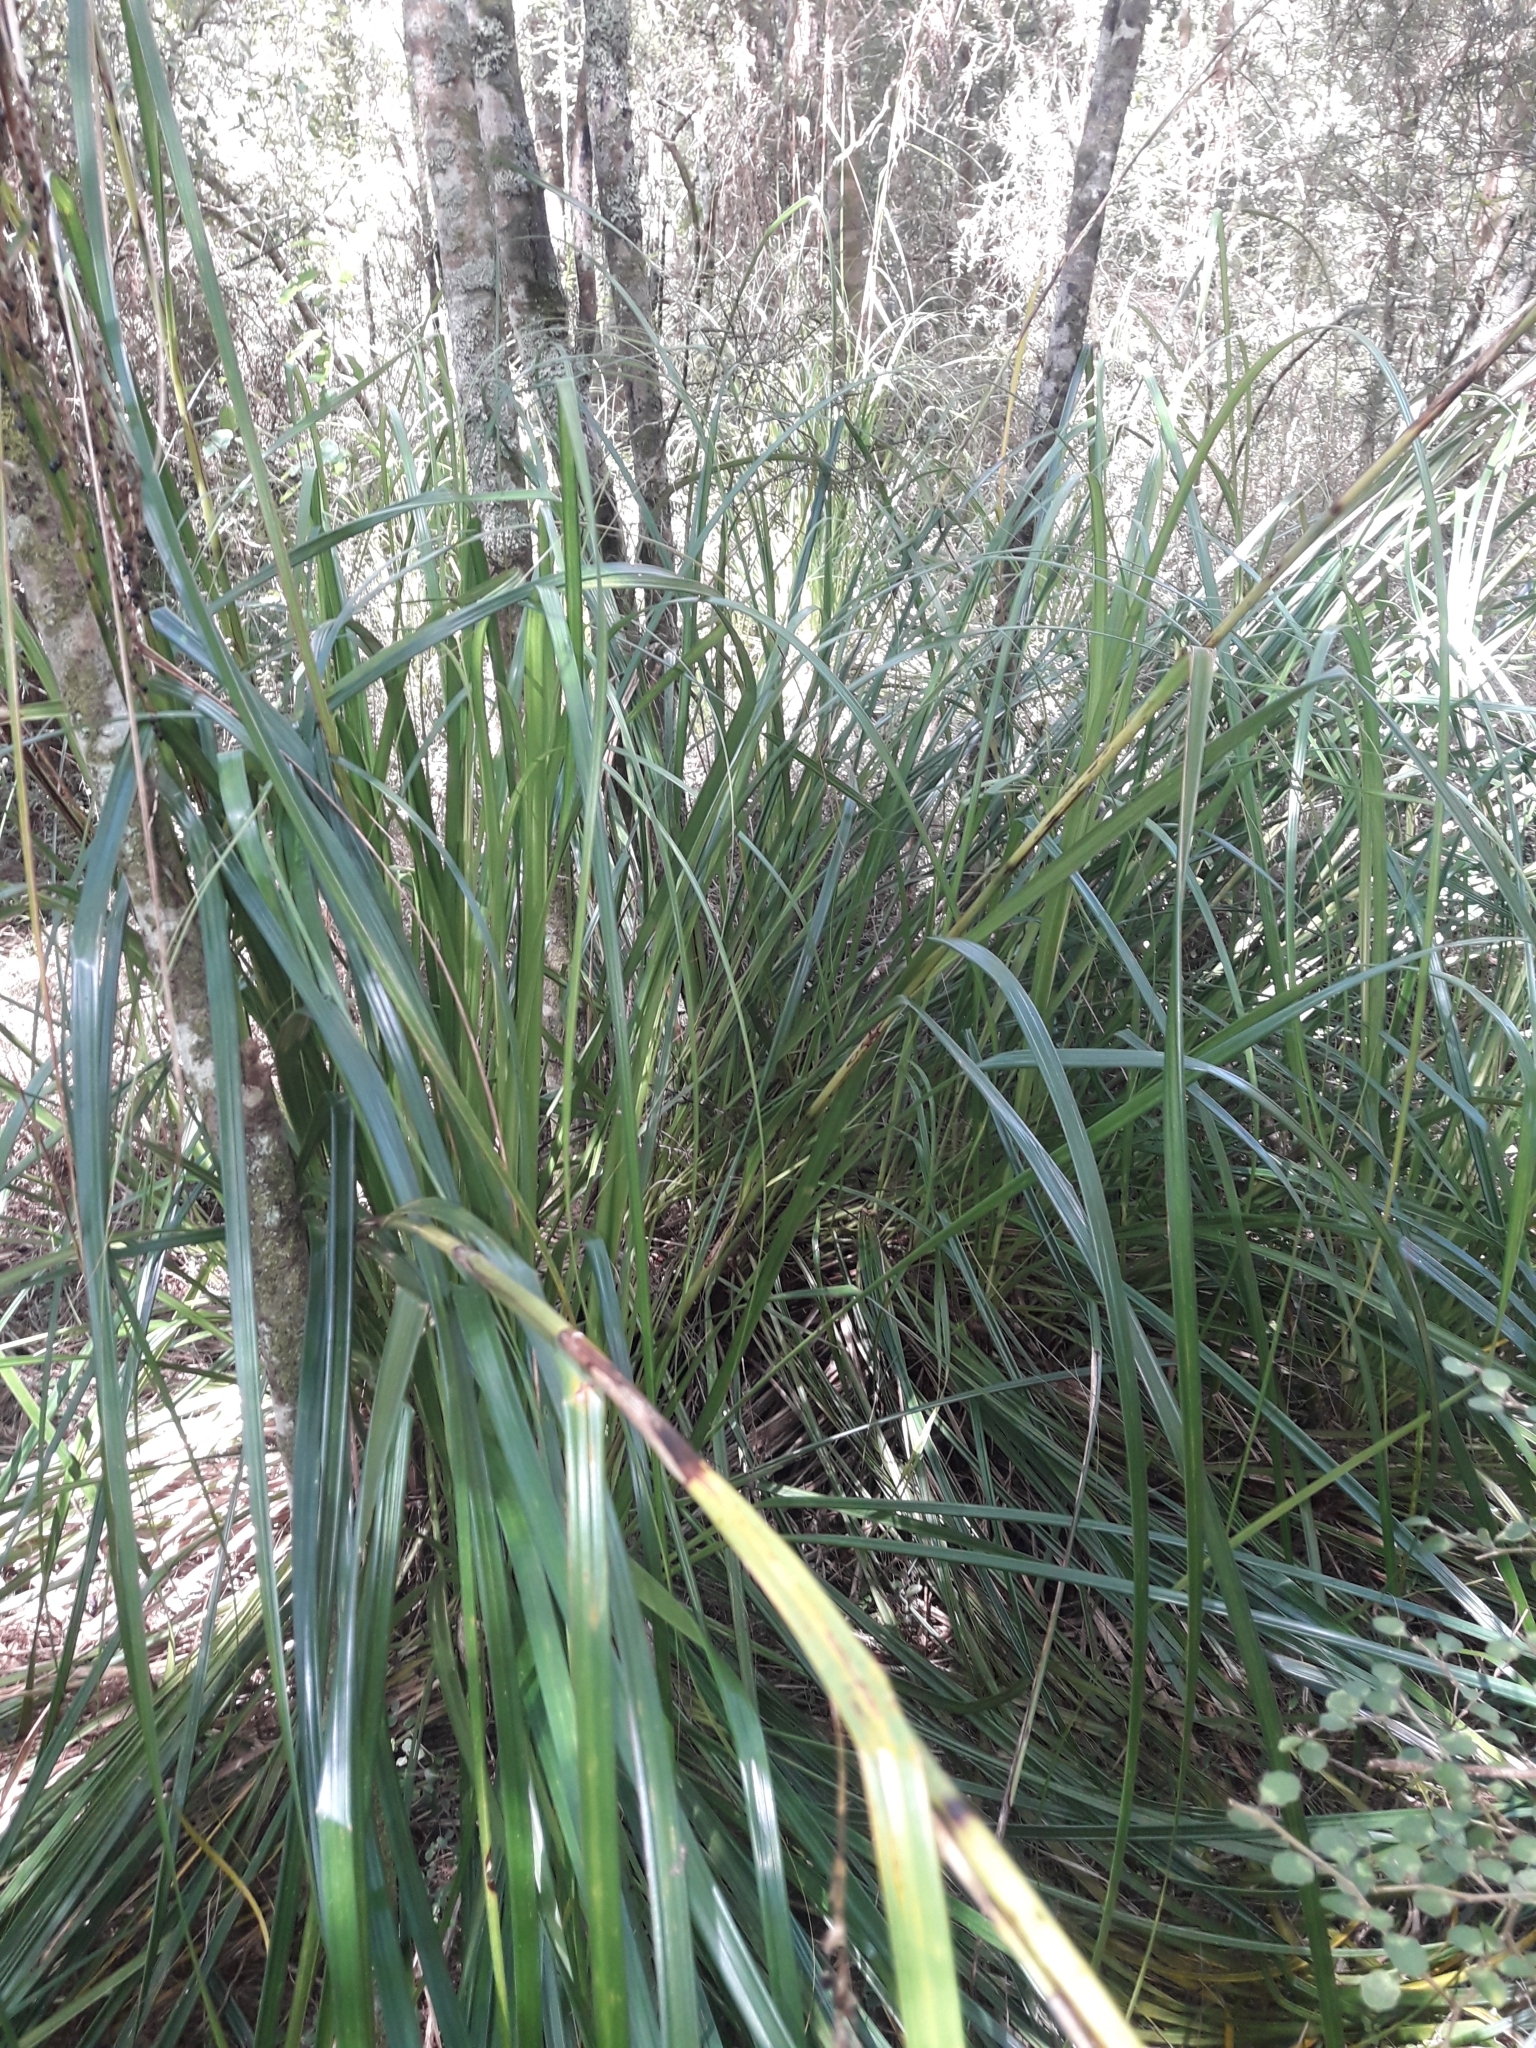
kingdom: Plantae
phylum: Tracheophyta
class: Liliopsida
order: Poales
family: Cyperaceae
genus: Gahnia
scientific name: Gahnia lacera
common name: Sawsedge
